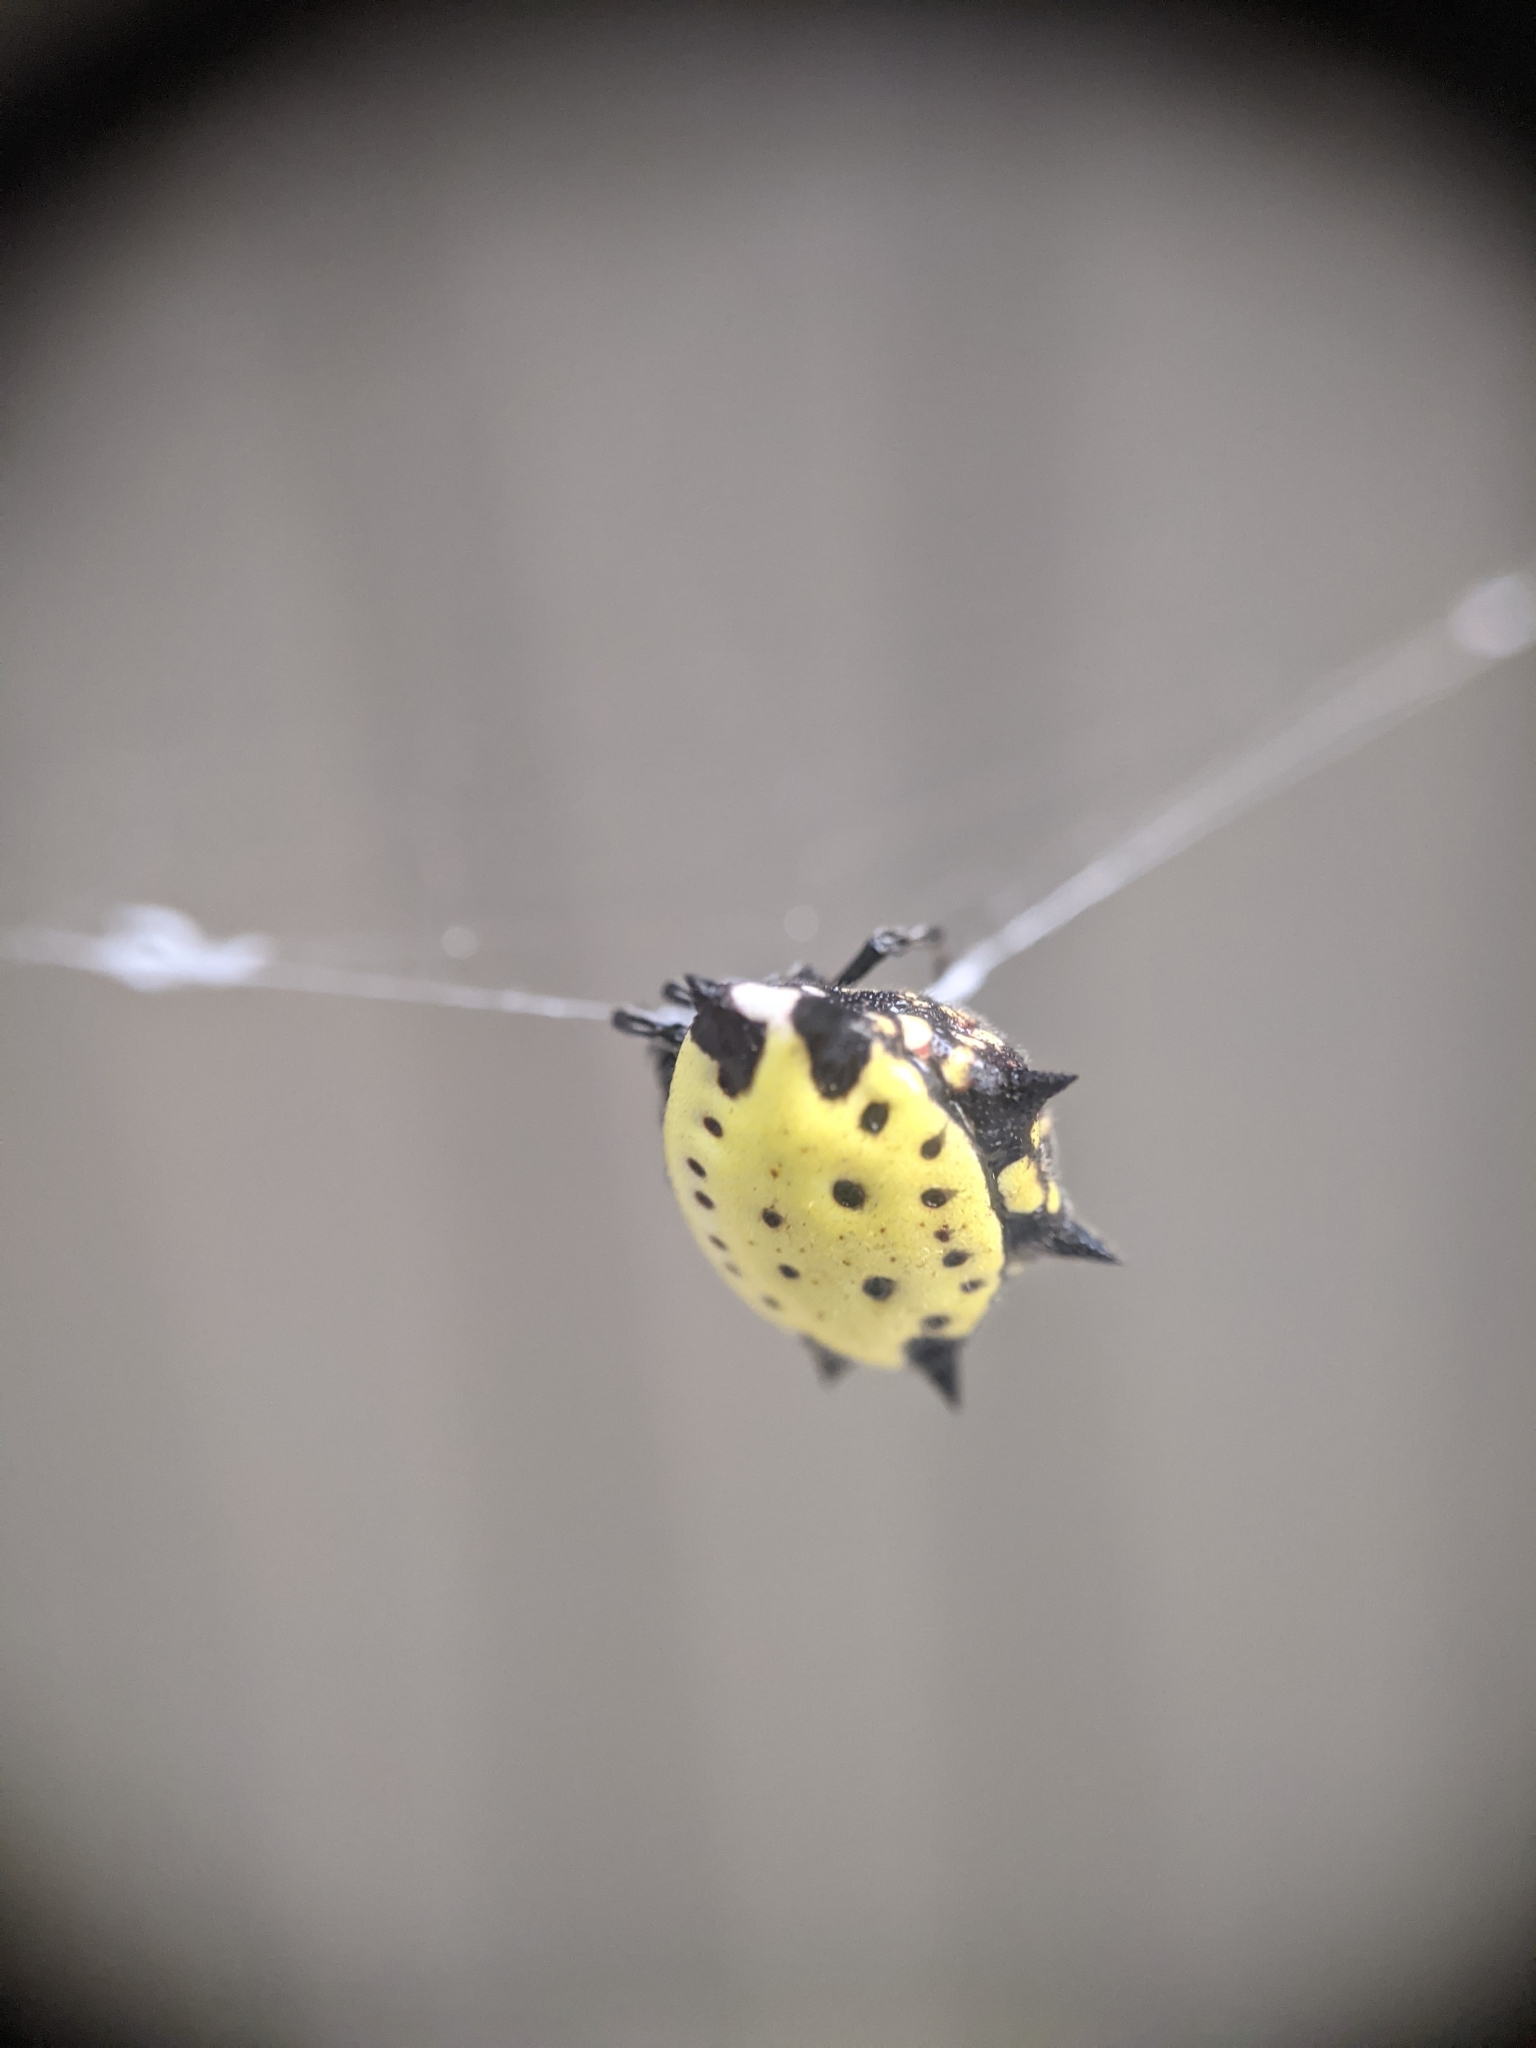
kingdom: Animalia
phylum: Arthropoda
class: Arachnida
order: Araneae
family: Araneidae
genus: Gasteracantha
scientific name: Gasteracantha cancriformis
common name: Orb weavers
